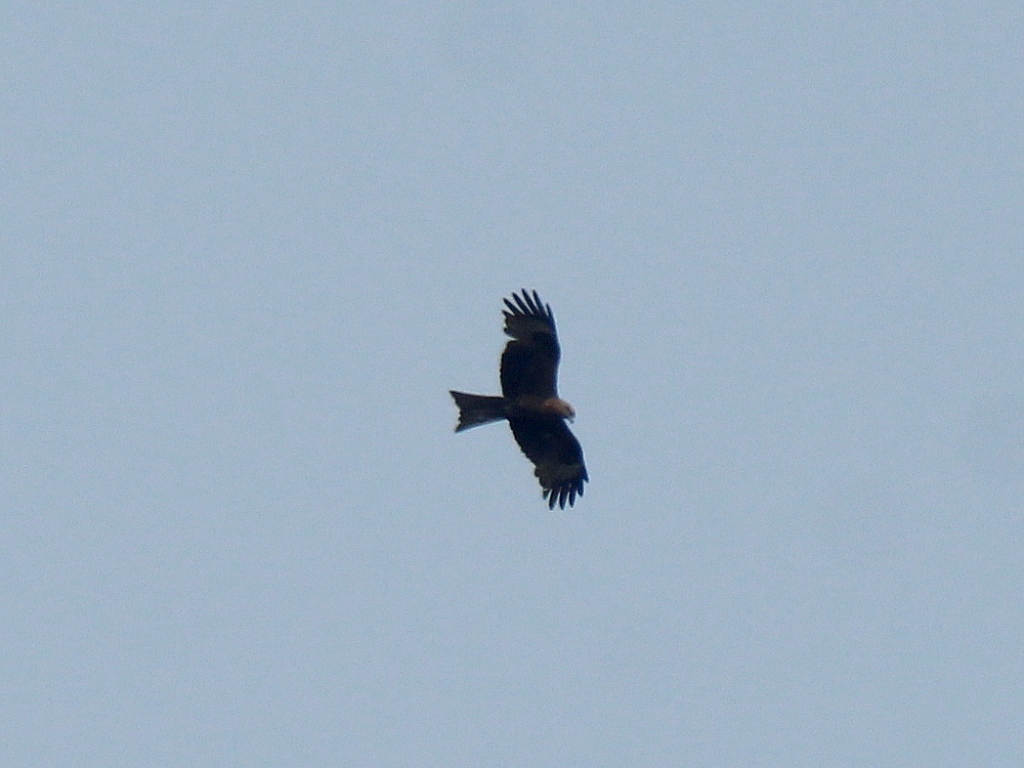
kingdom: Animalia
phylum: Chordata
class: Aves
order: Accipitriformes
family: Accipitridae
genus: Milvus
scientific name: Milvus migrans
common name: Black kite
